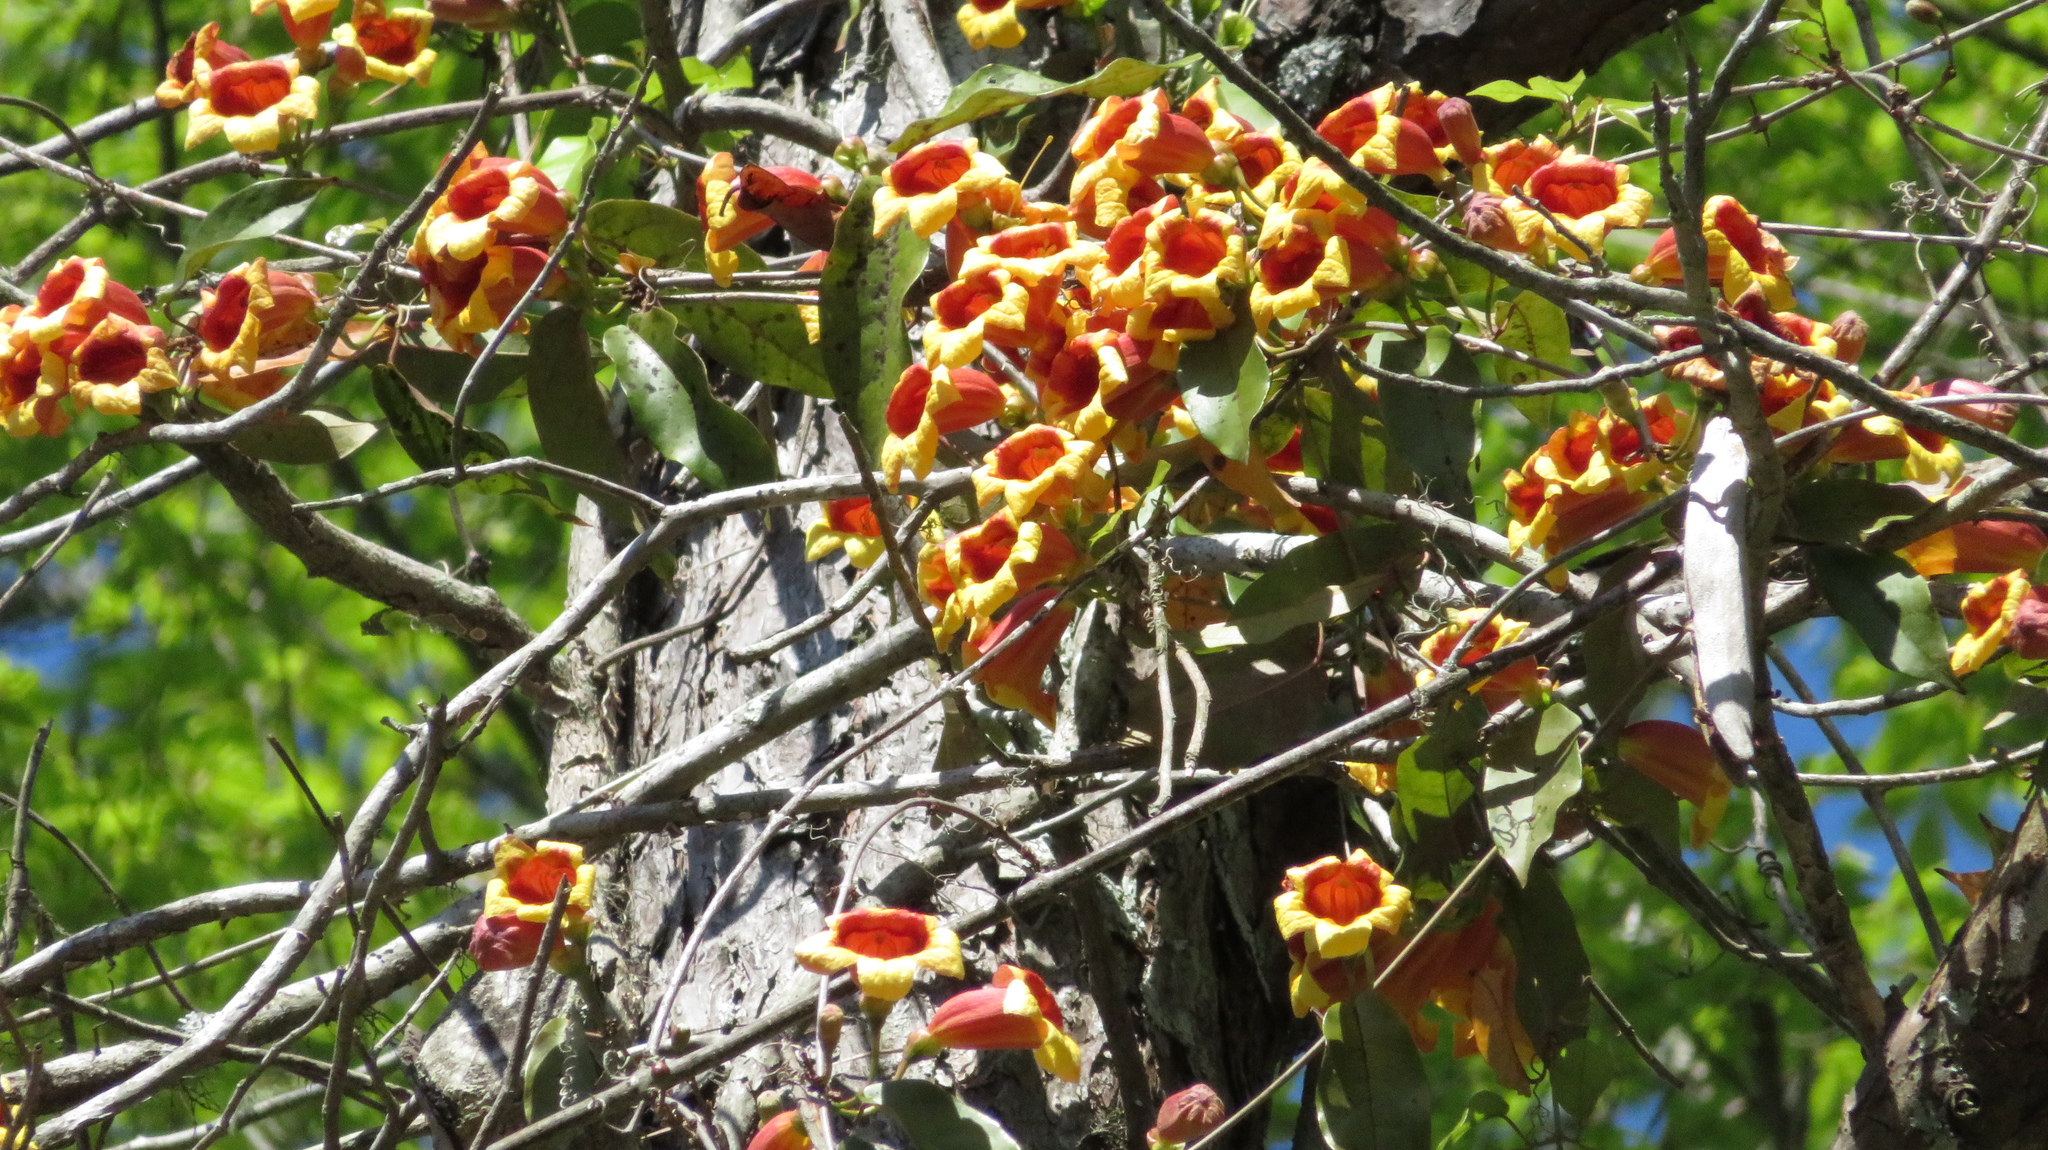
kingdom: Plantae
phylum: Tracheophyta
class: Magnoliopsida
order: Lamiales
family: Bignoniaceae
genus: Bignonia
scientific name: Bignonia capreolata
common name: Crossvine
